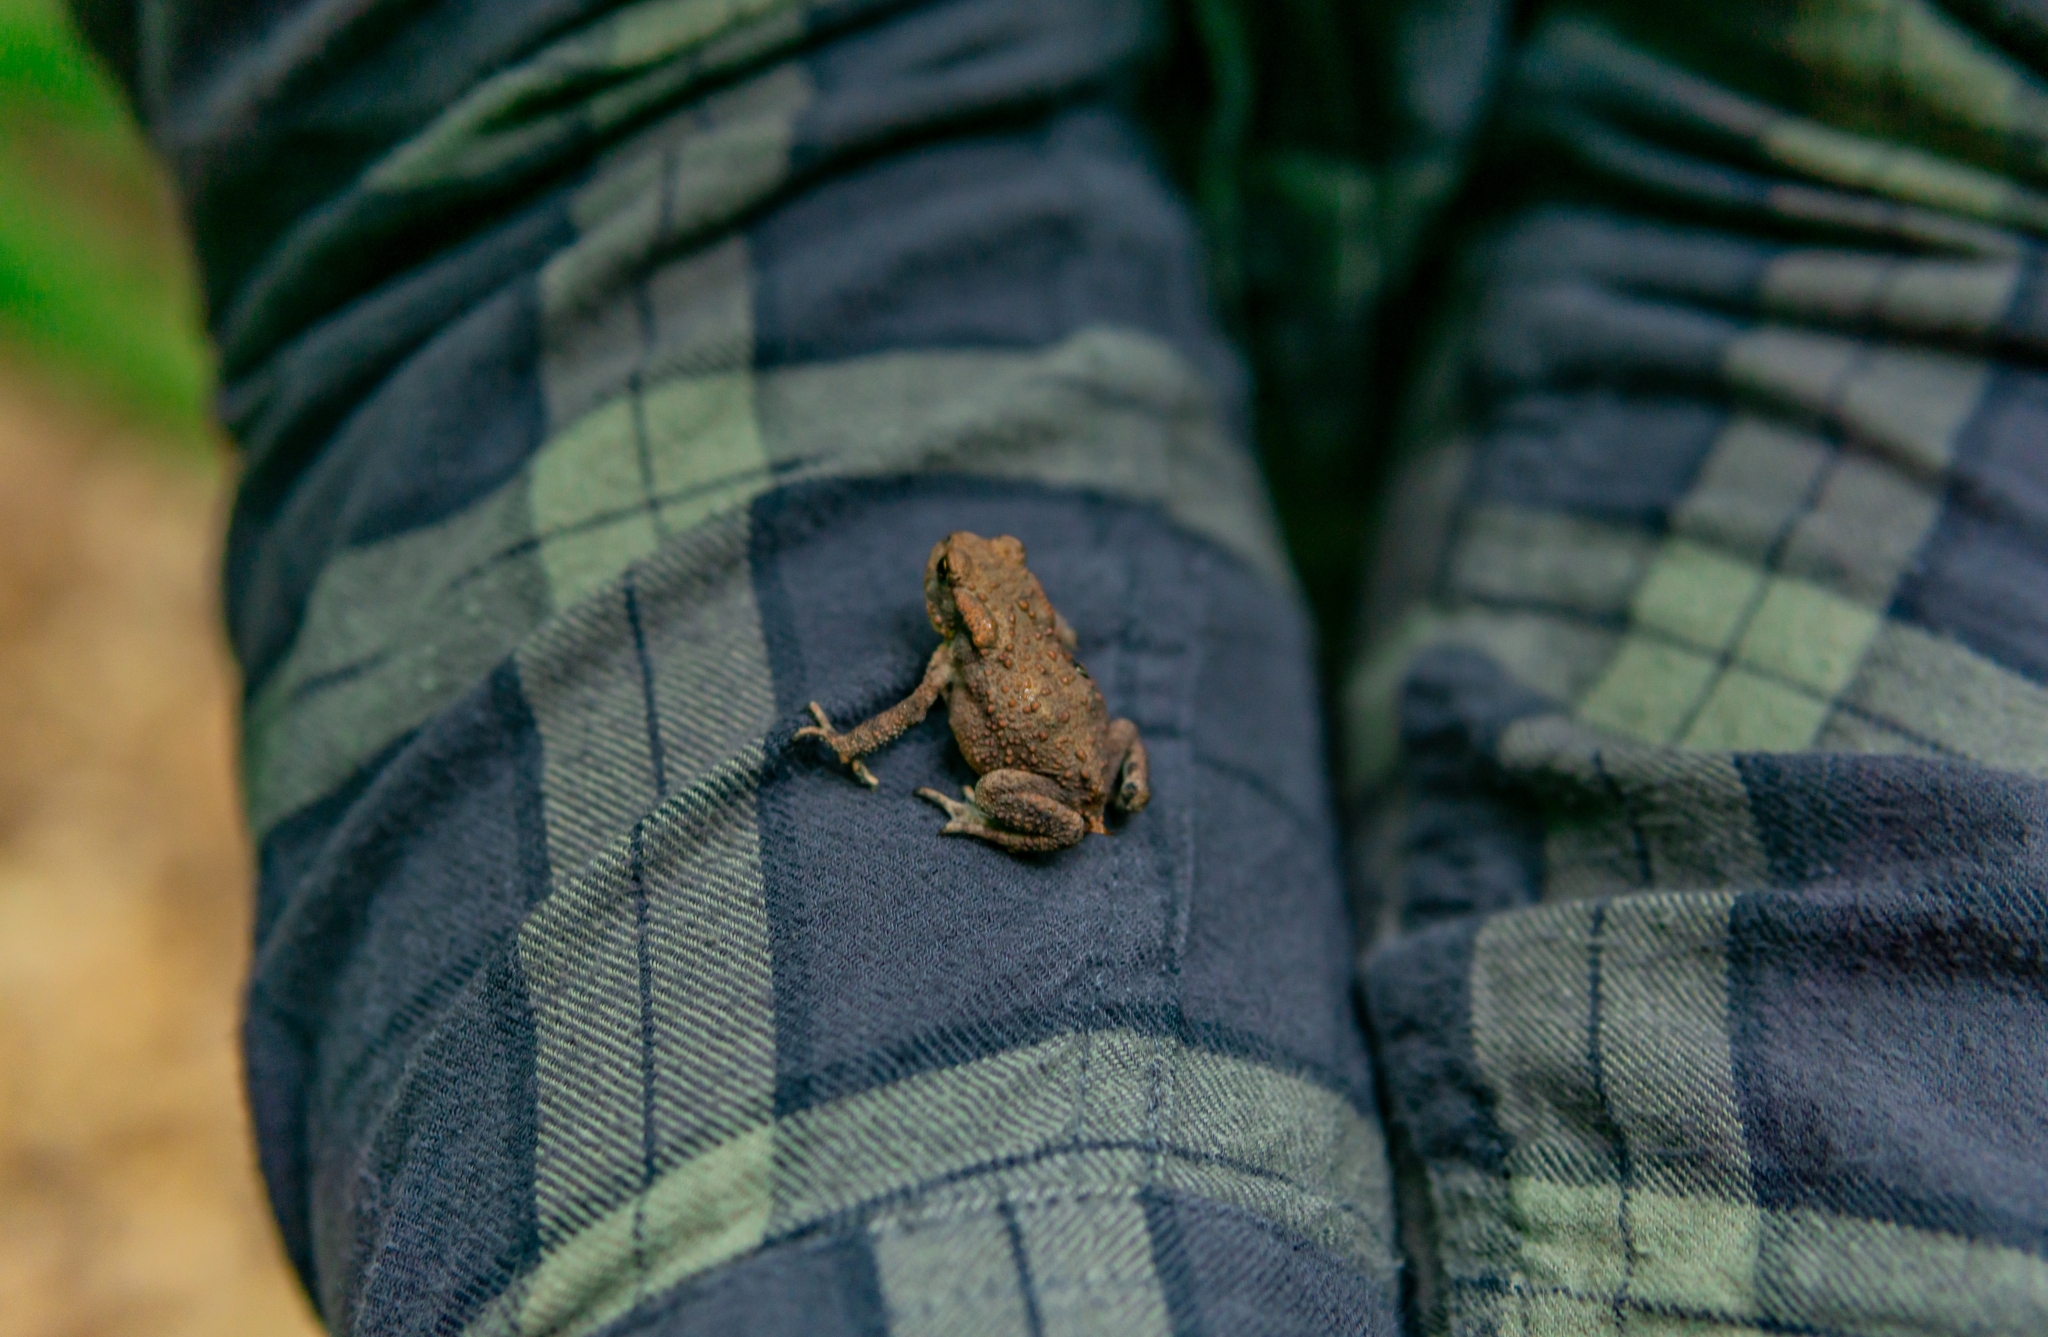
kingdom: Animalia
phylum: Chordata
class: Amphibia
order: Anura
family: Bufonidae
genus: Bufo
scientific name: Bufo bufo
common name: Common toad
